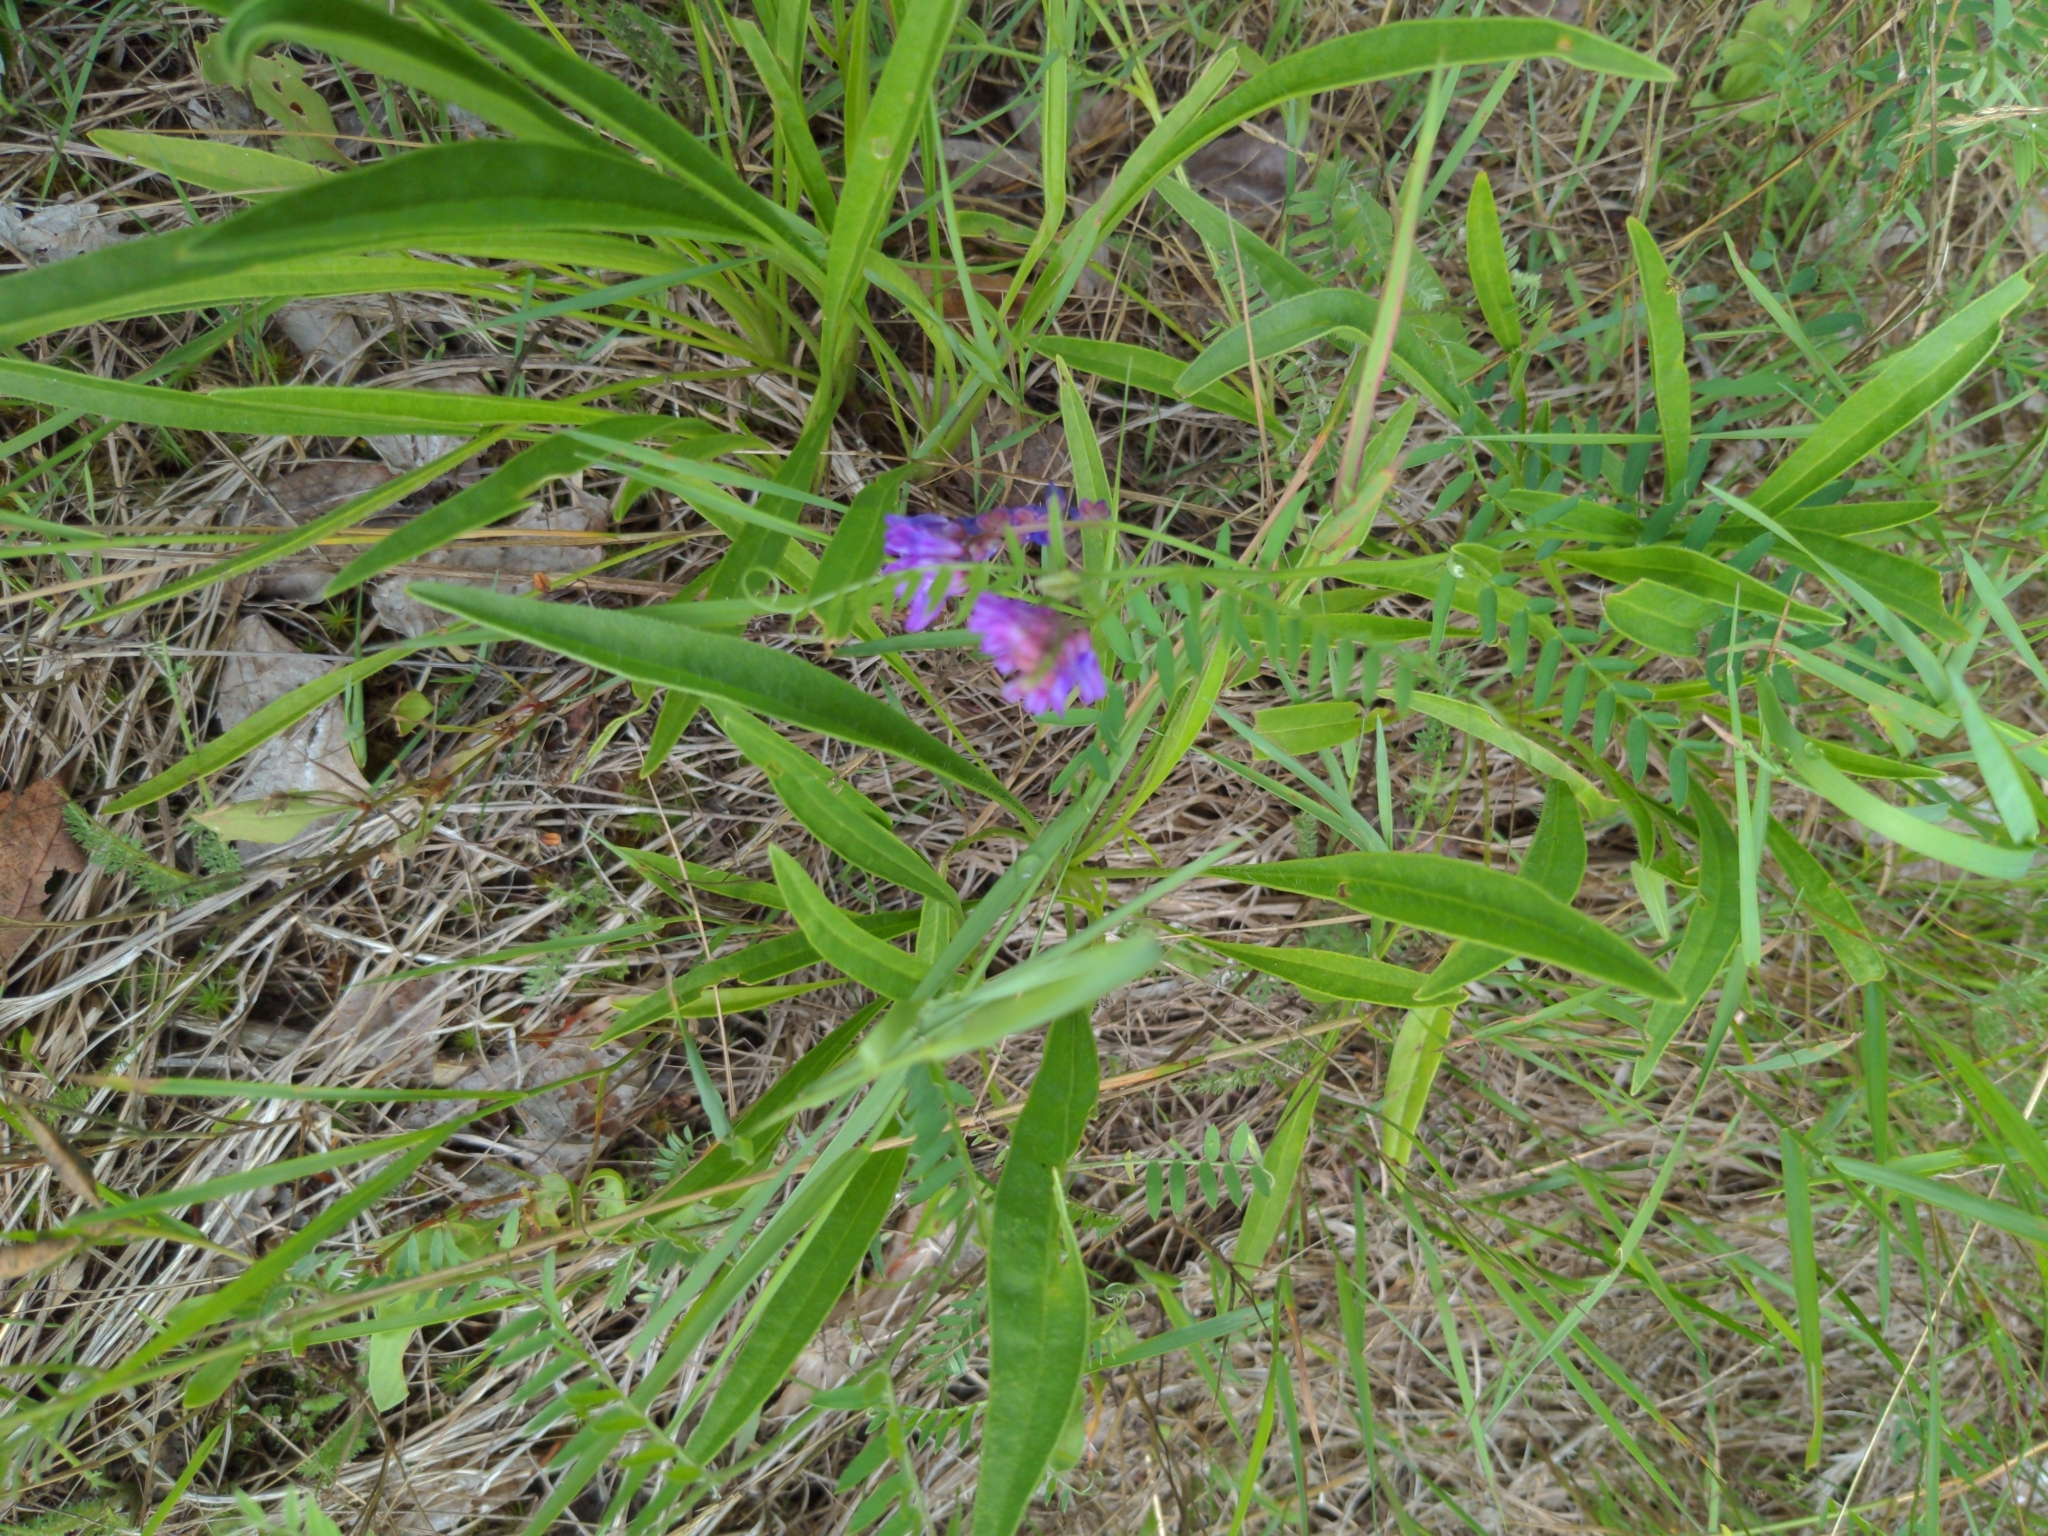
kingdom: Plantae
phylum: Tracheophyta
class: Magnoliopsida
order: Fabales
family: Fabaceae
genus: Vicia
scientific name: Vicia cracca
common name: Bird vetch
